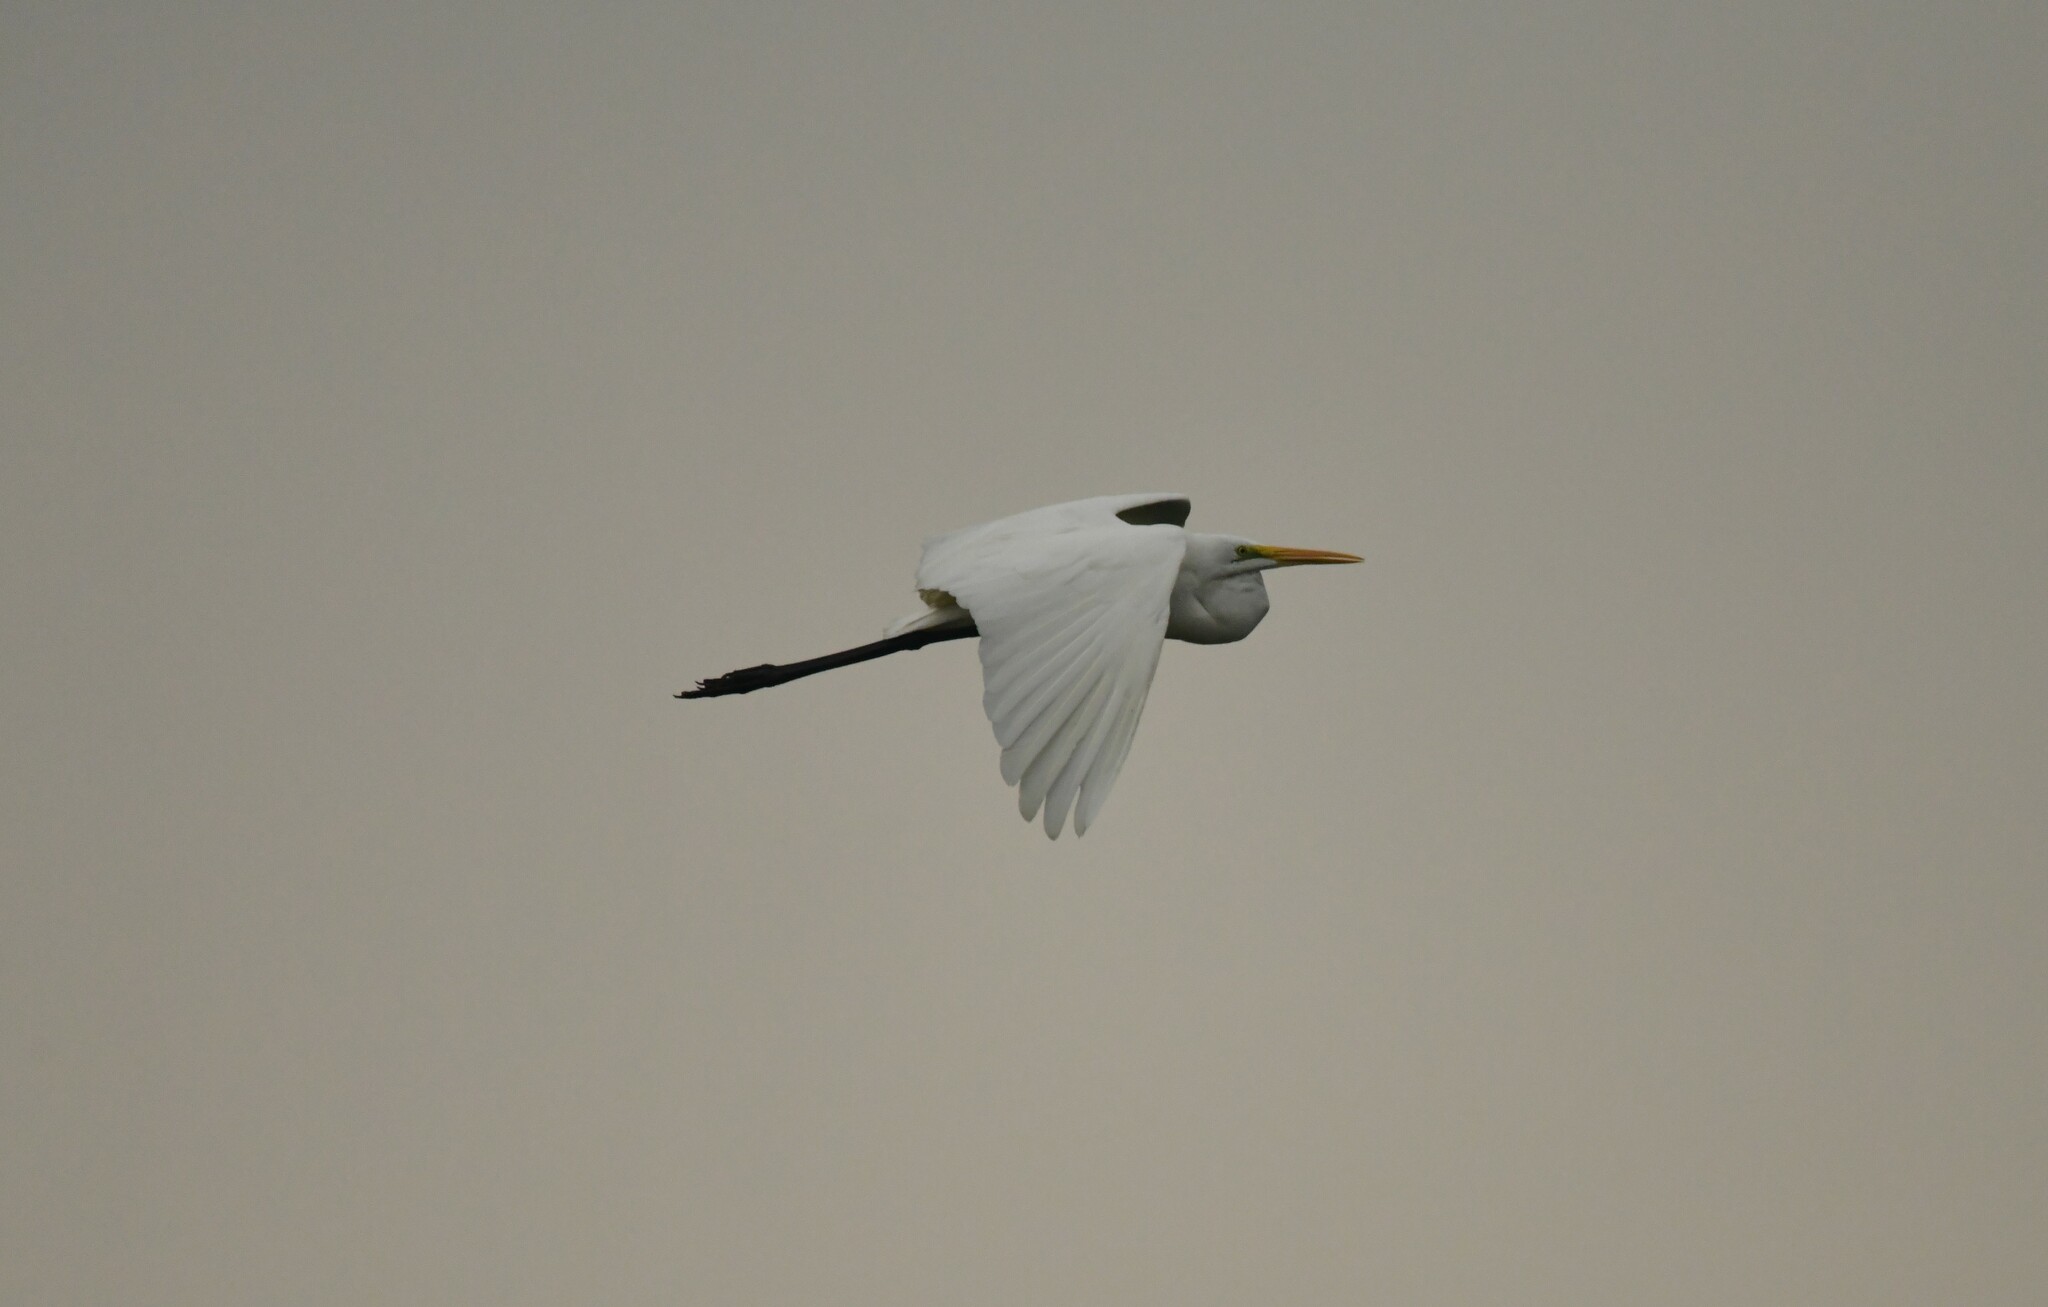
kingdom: Animalia
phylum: Chordata
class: Aves
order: Pelecaniformes
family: Ardeidae
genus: Ardea
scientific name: Ardea alba
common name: Great egret
